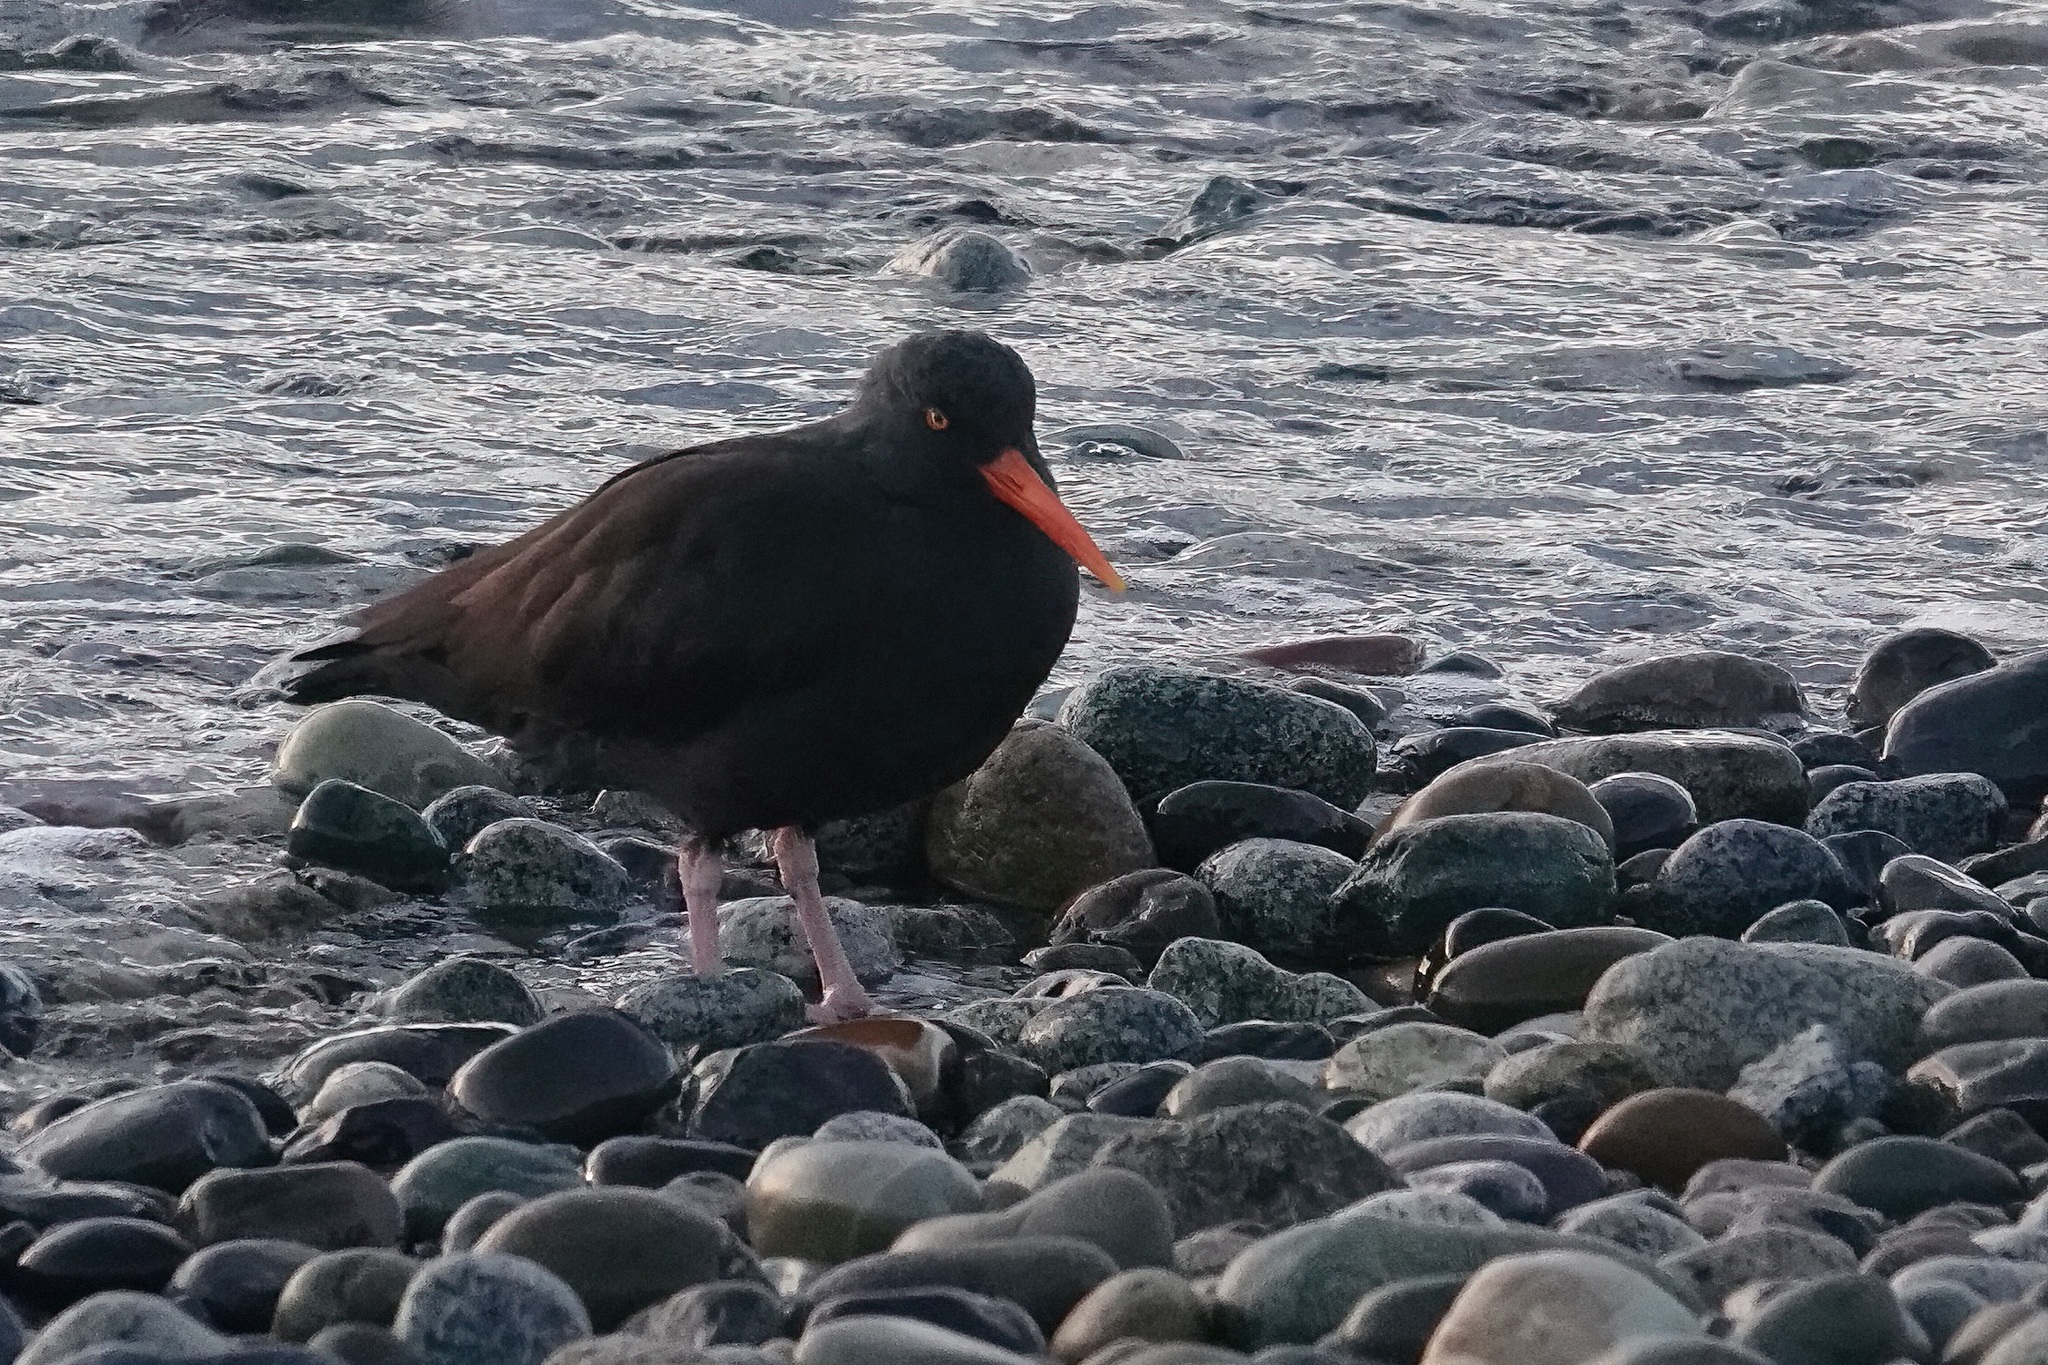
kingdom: Animalia
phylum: Chordata
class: Aves
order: Charadriiformes
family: Haematopodidae
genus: Haematopus
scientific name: Haematopus bachmani
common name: Black oystercatcher
